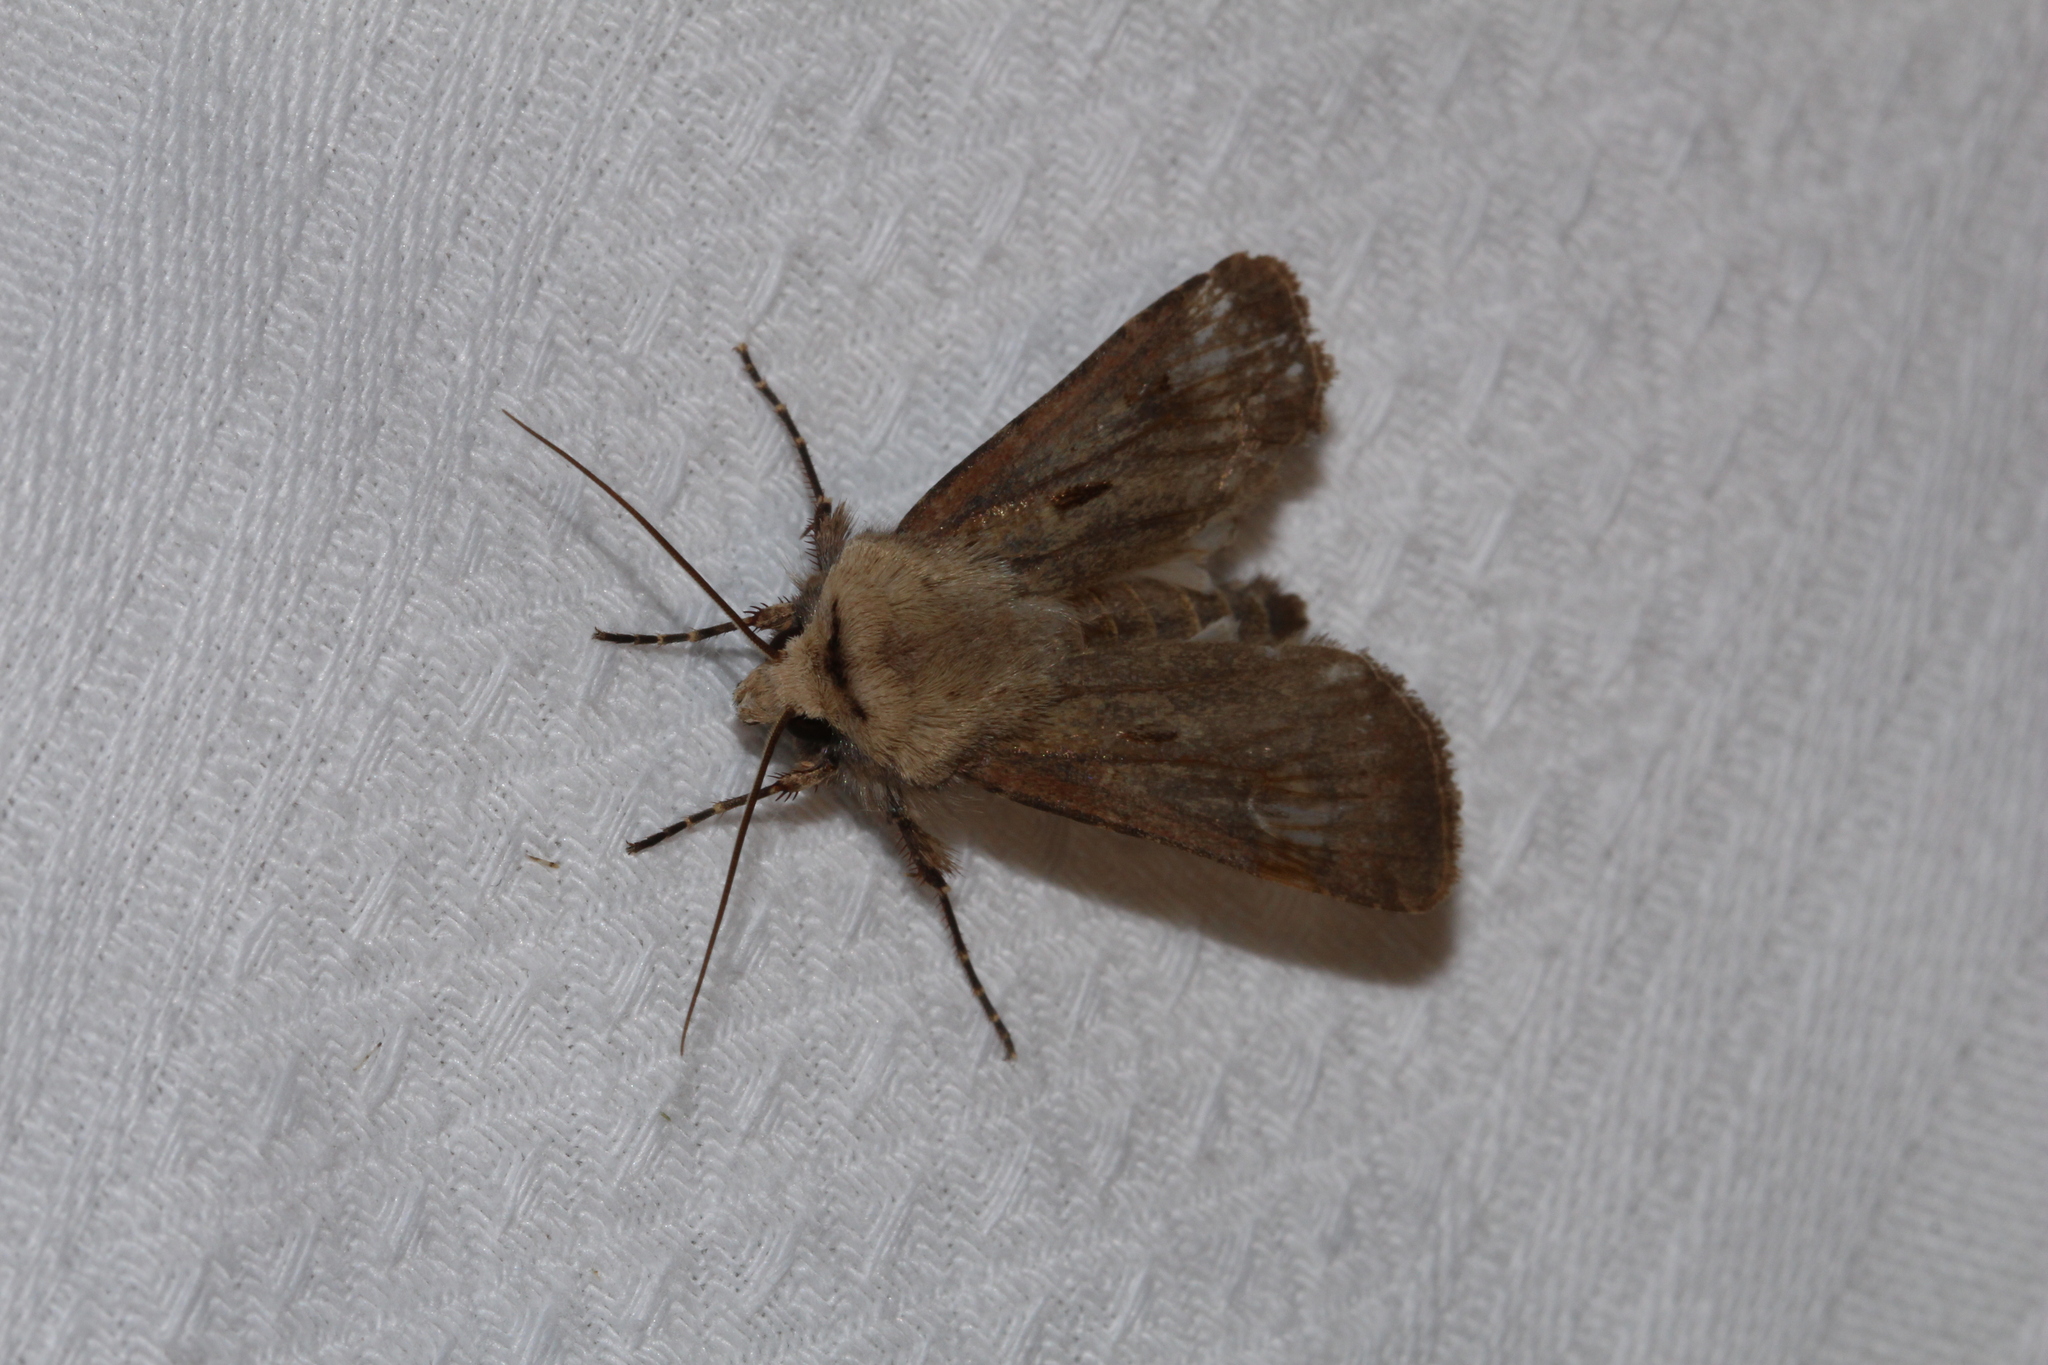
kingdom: Animalia
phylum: Arthropoda
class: Insecta
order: Lepidoptera
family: Noctuidae
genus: Agrotis
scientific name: Agrotis exclamationis
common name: Heart and dart
